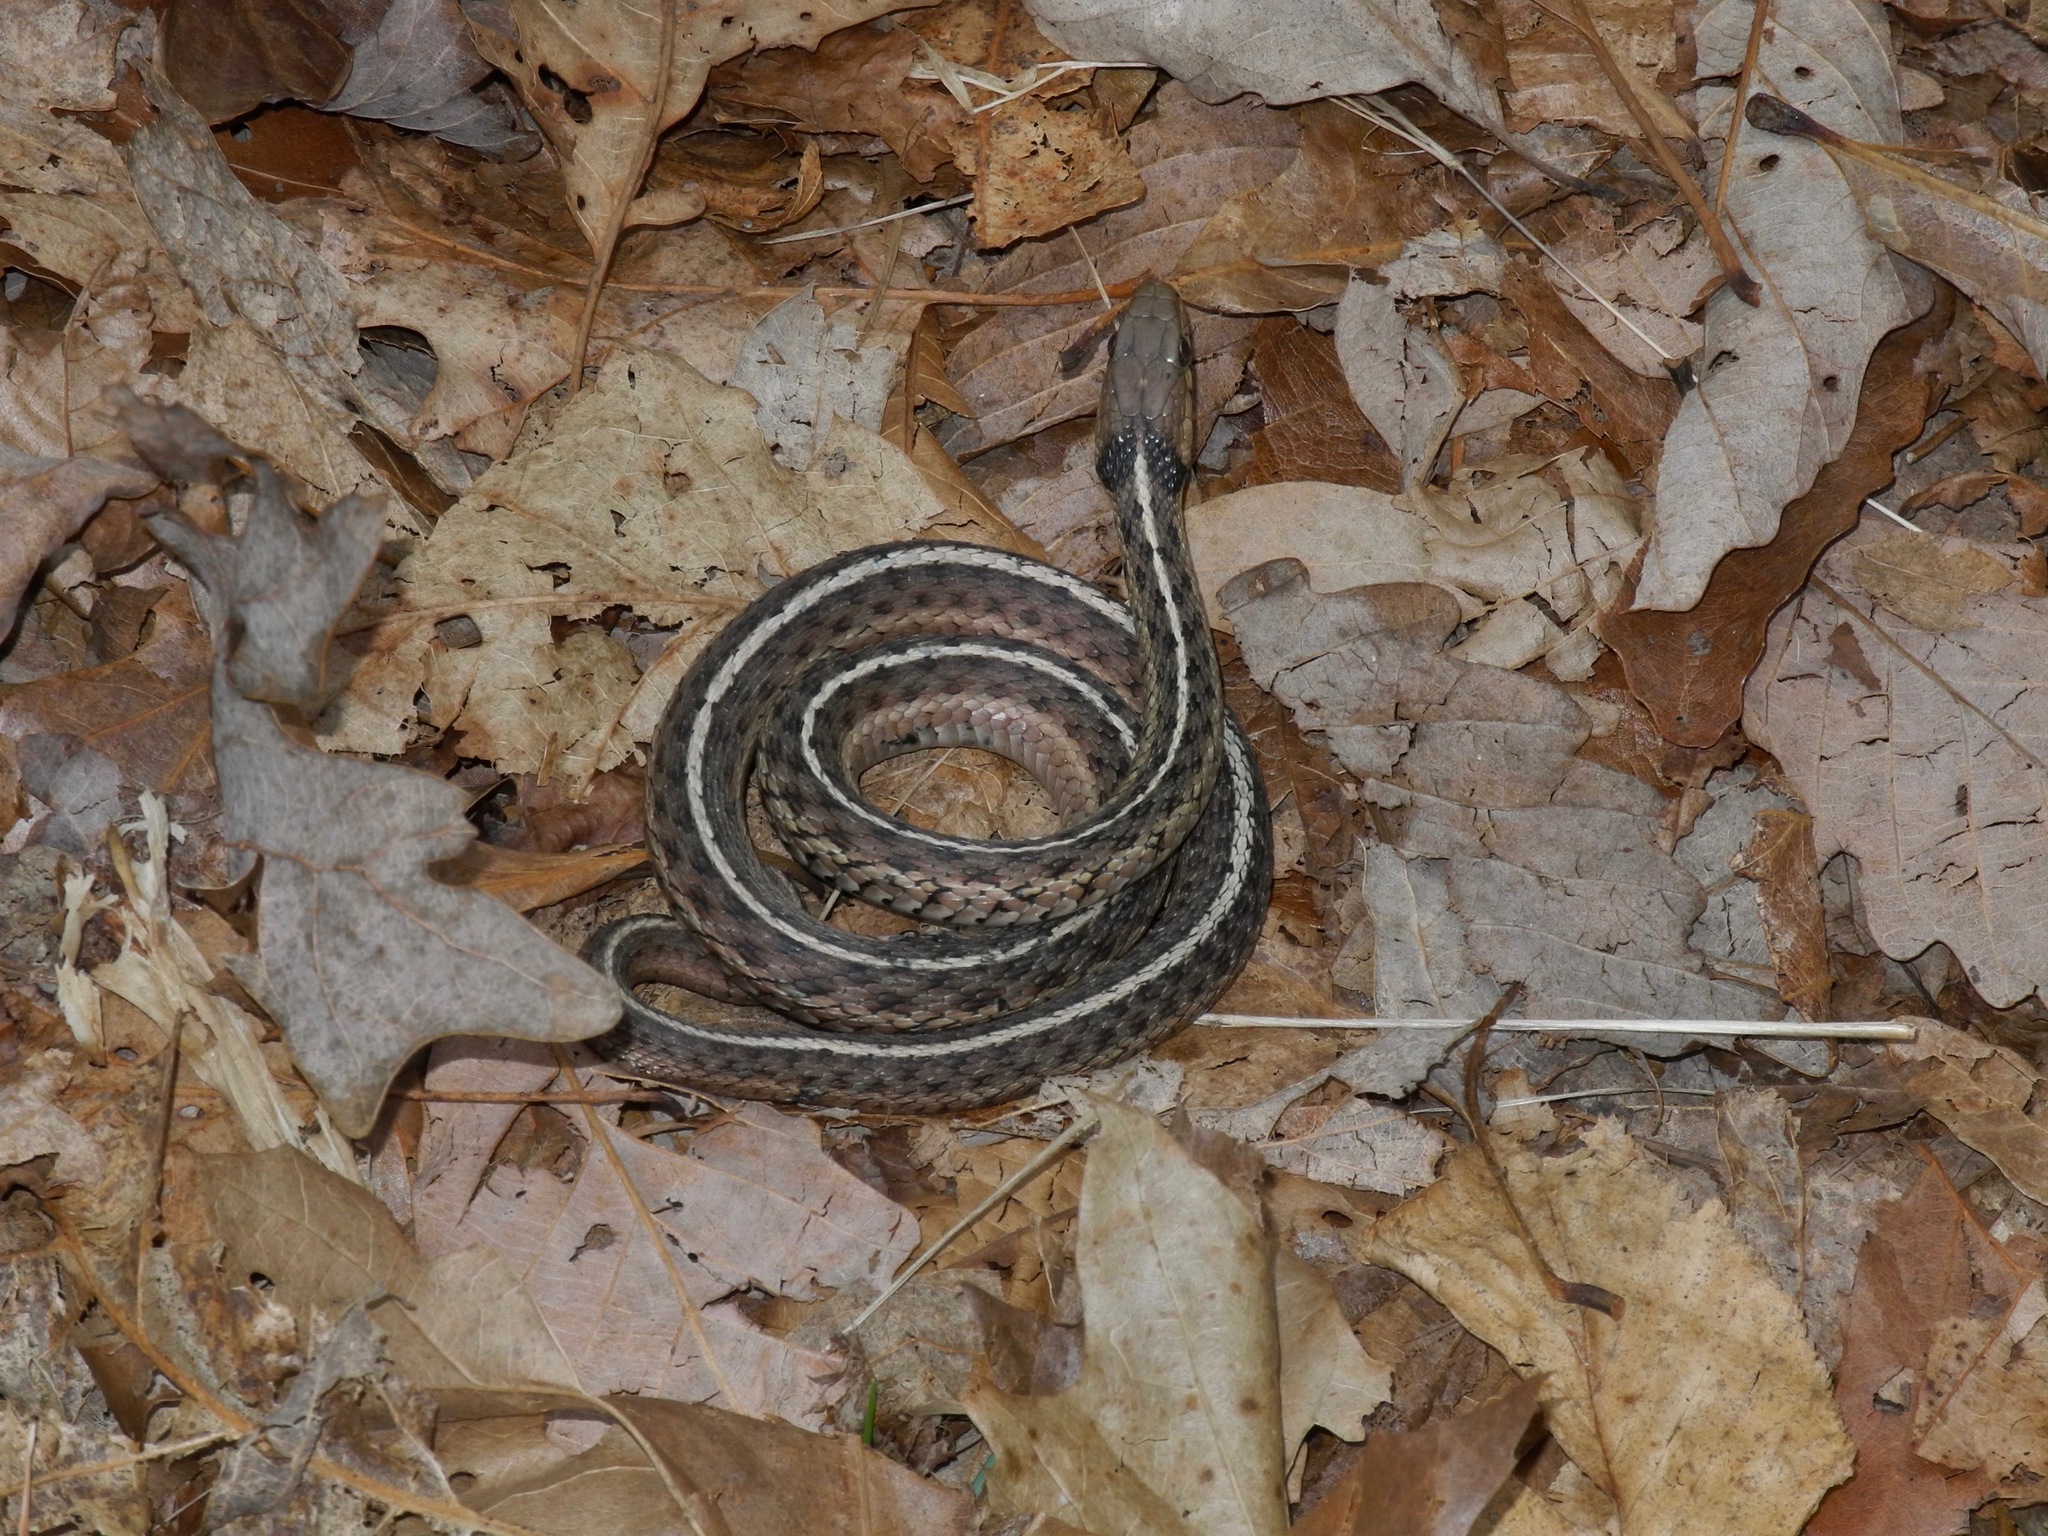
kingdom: Animalia
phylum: Chordata
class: Squamata
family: Colubridae
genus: Thamnophis
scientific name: Thamnophis sirtalis
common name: Common garter snake
